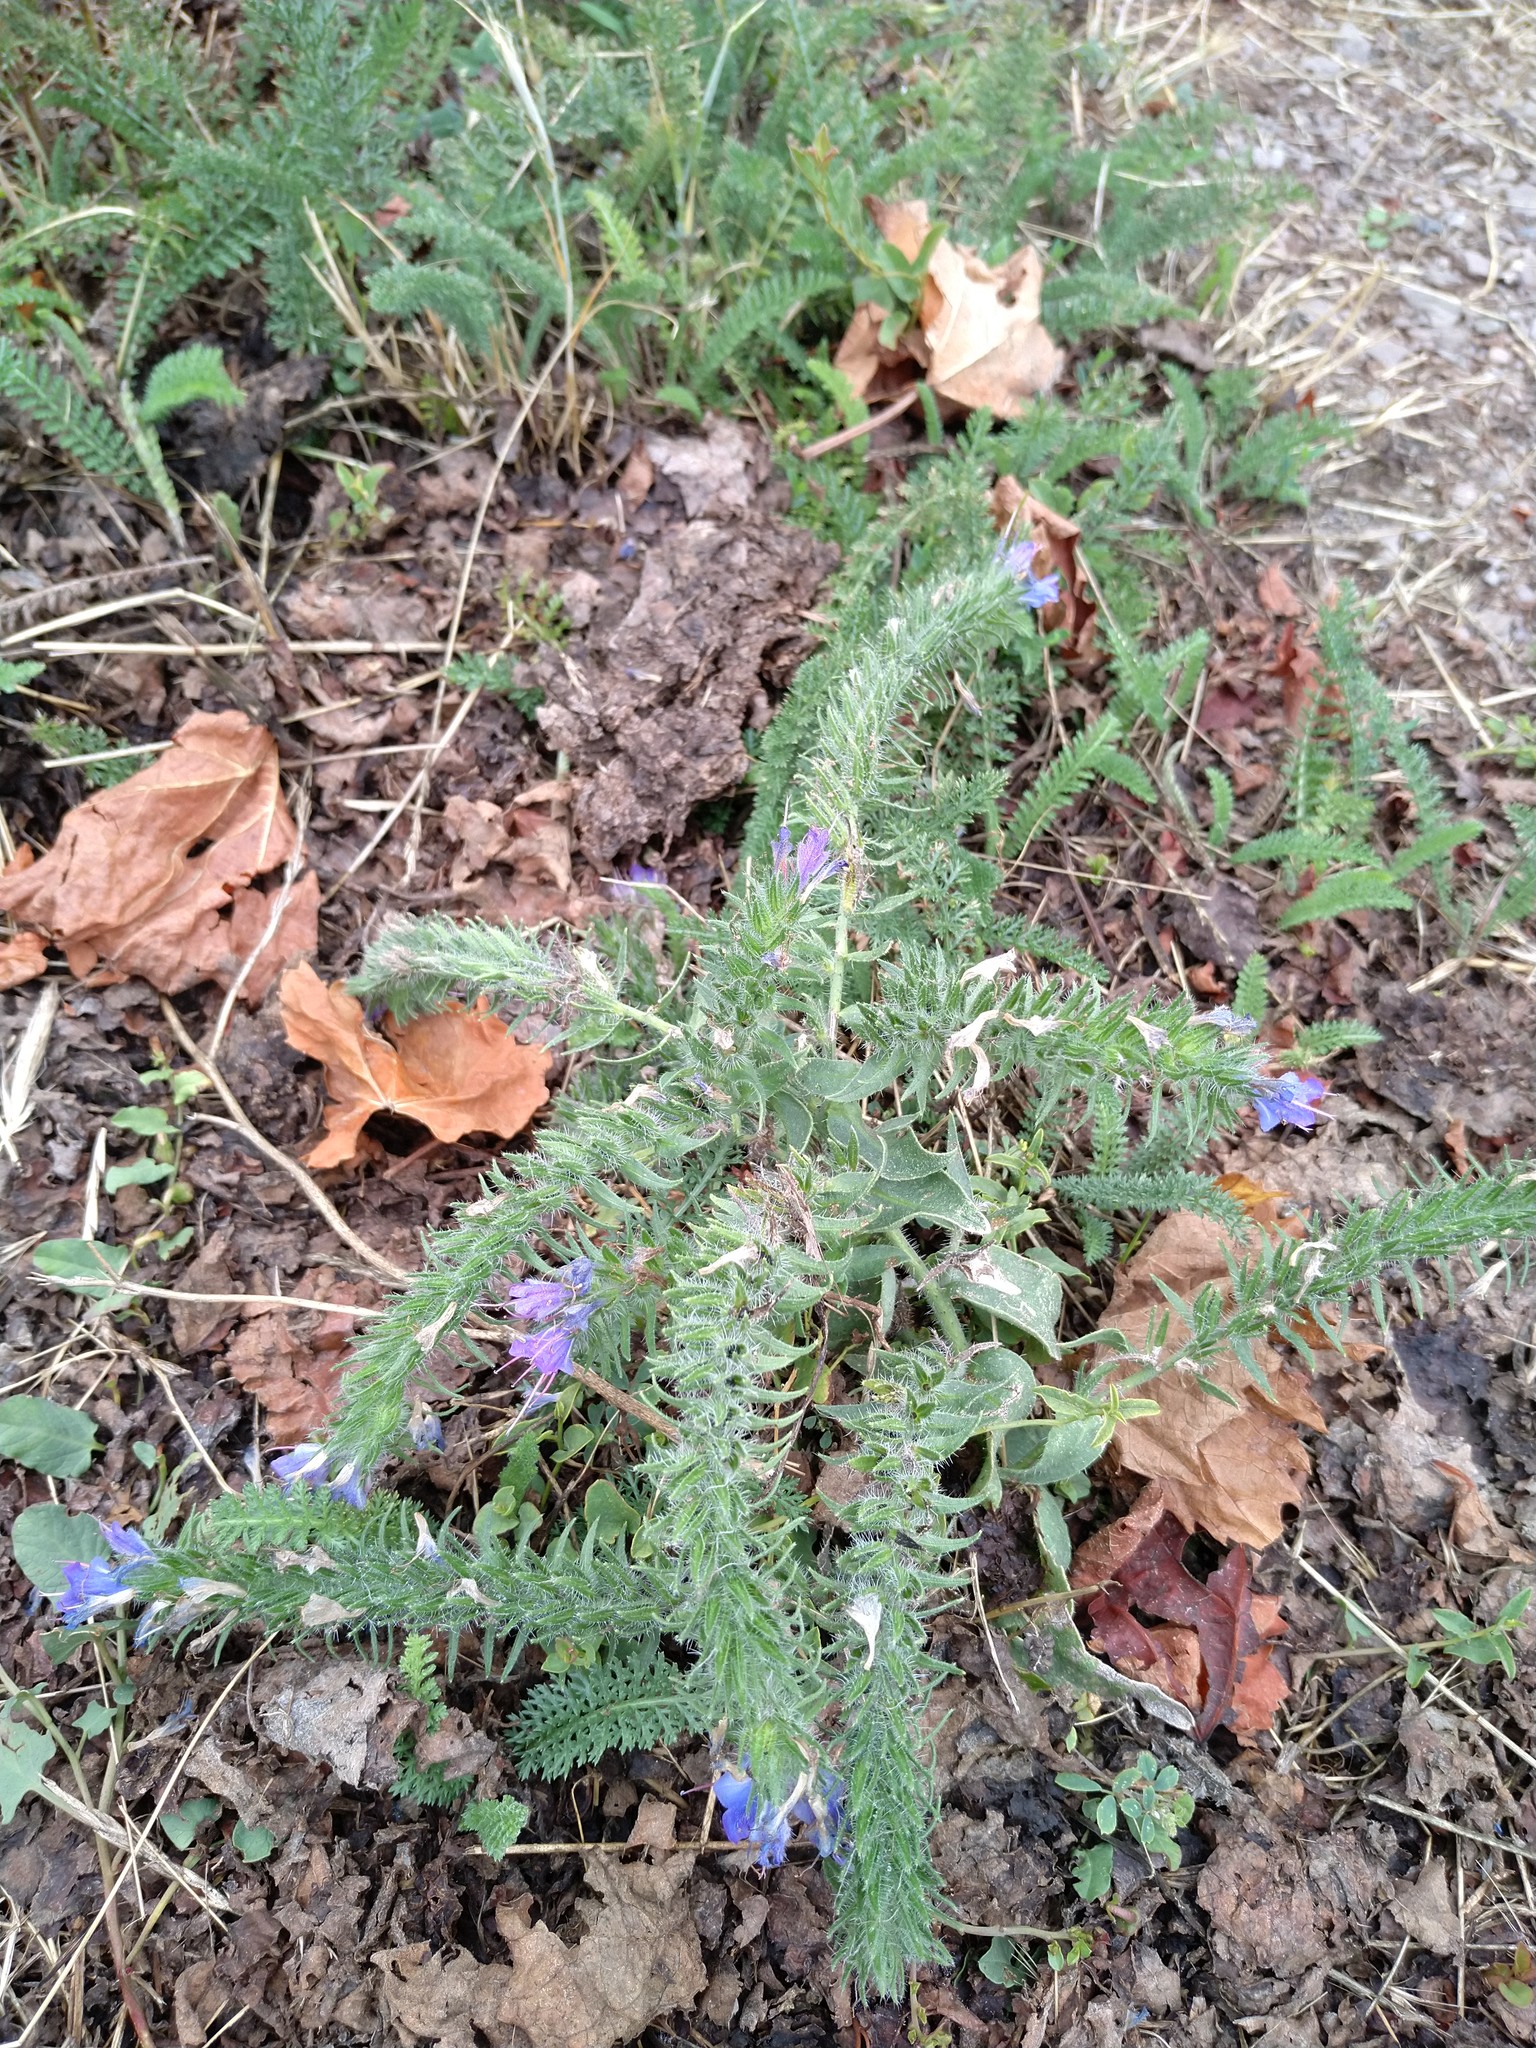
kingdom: Plantae
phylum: Tracheophyta
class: Magnoliopsida
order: Boraginales
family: Boraginaceae
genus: Echium
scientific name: Echium vulgare
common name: Common viper's bugloss
